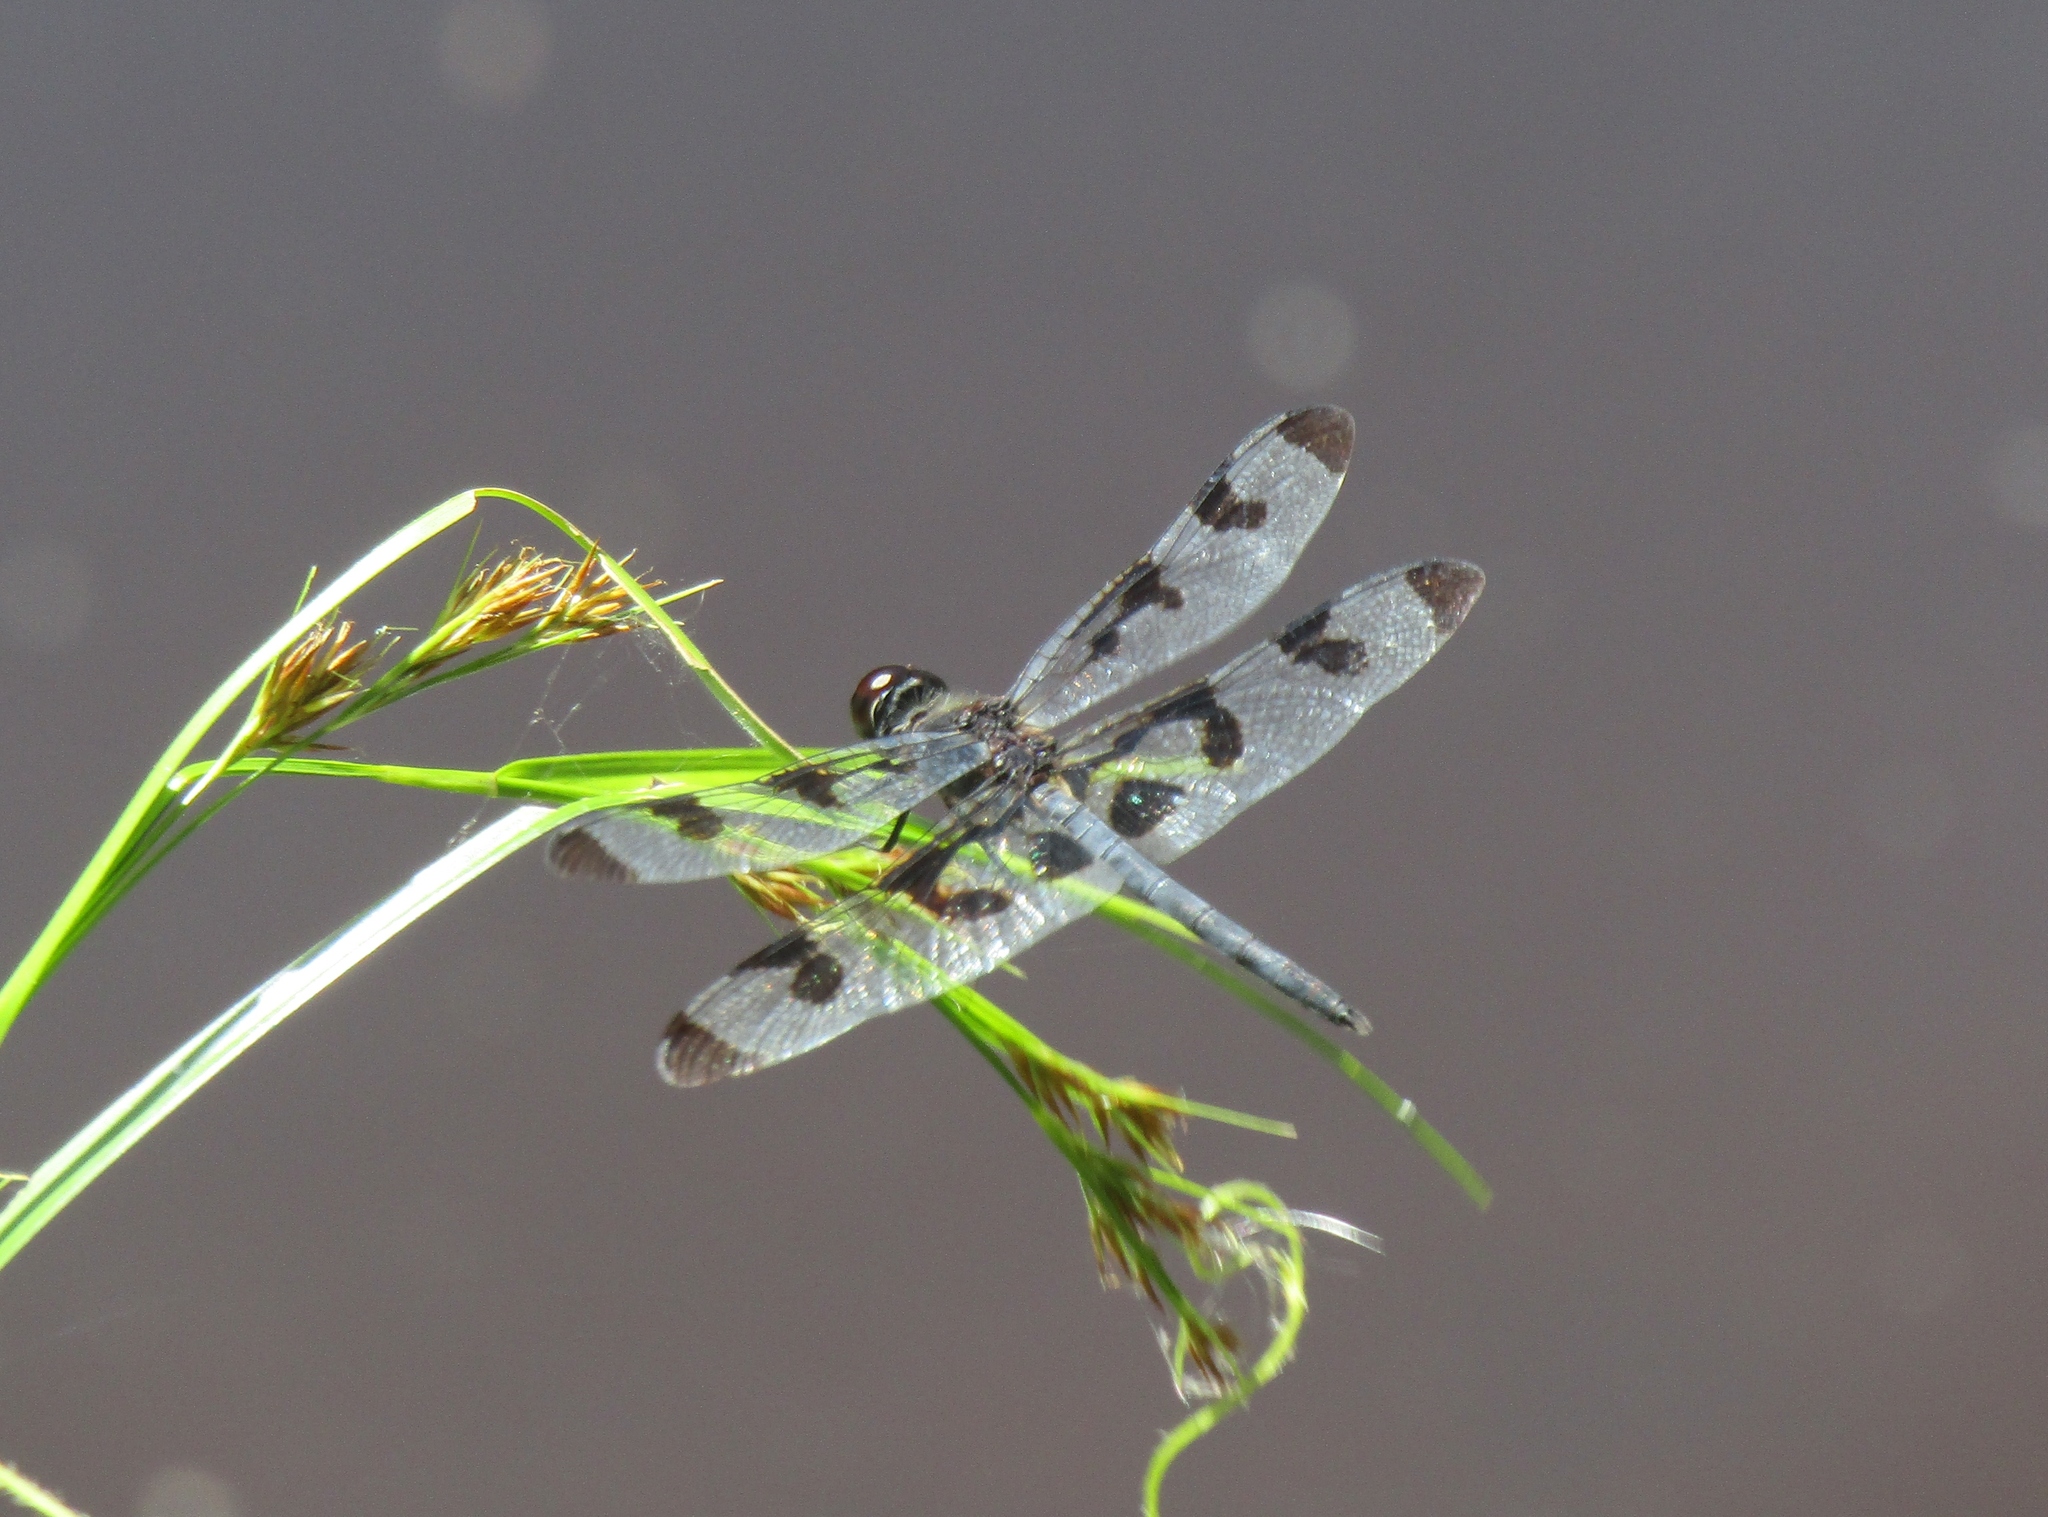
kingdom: Animalia
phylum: Arthropoda
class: Insecta
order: Odonata
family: Libellulidae
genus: Celithemis
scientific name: Celithemis fasciata
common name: Banded pennant
